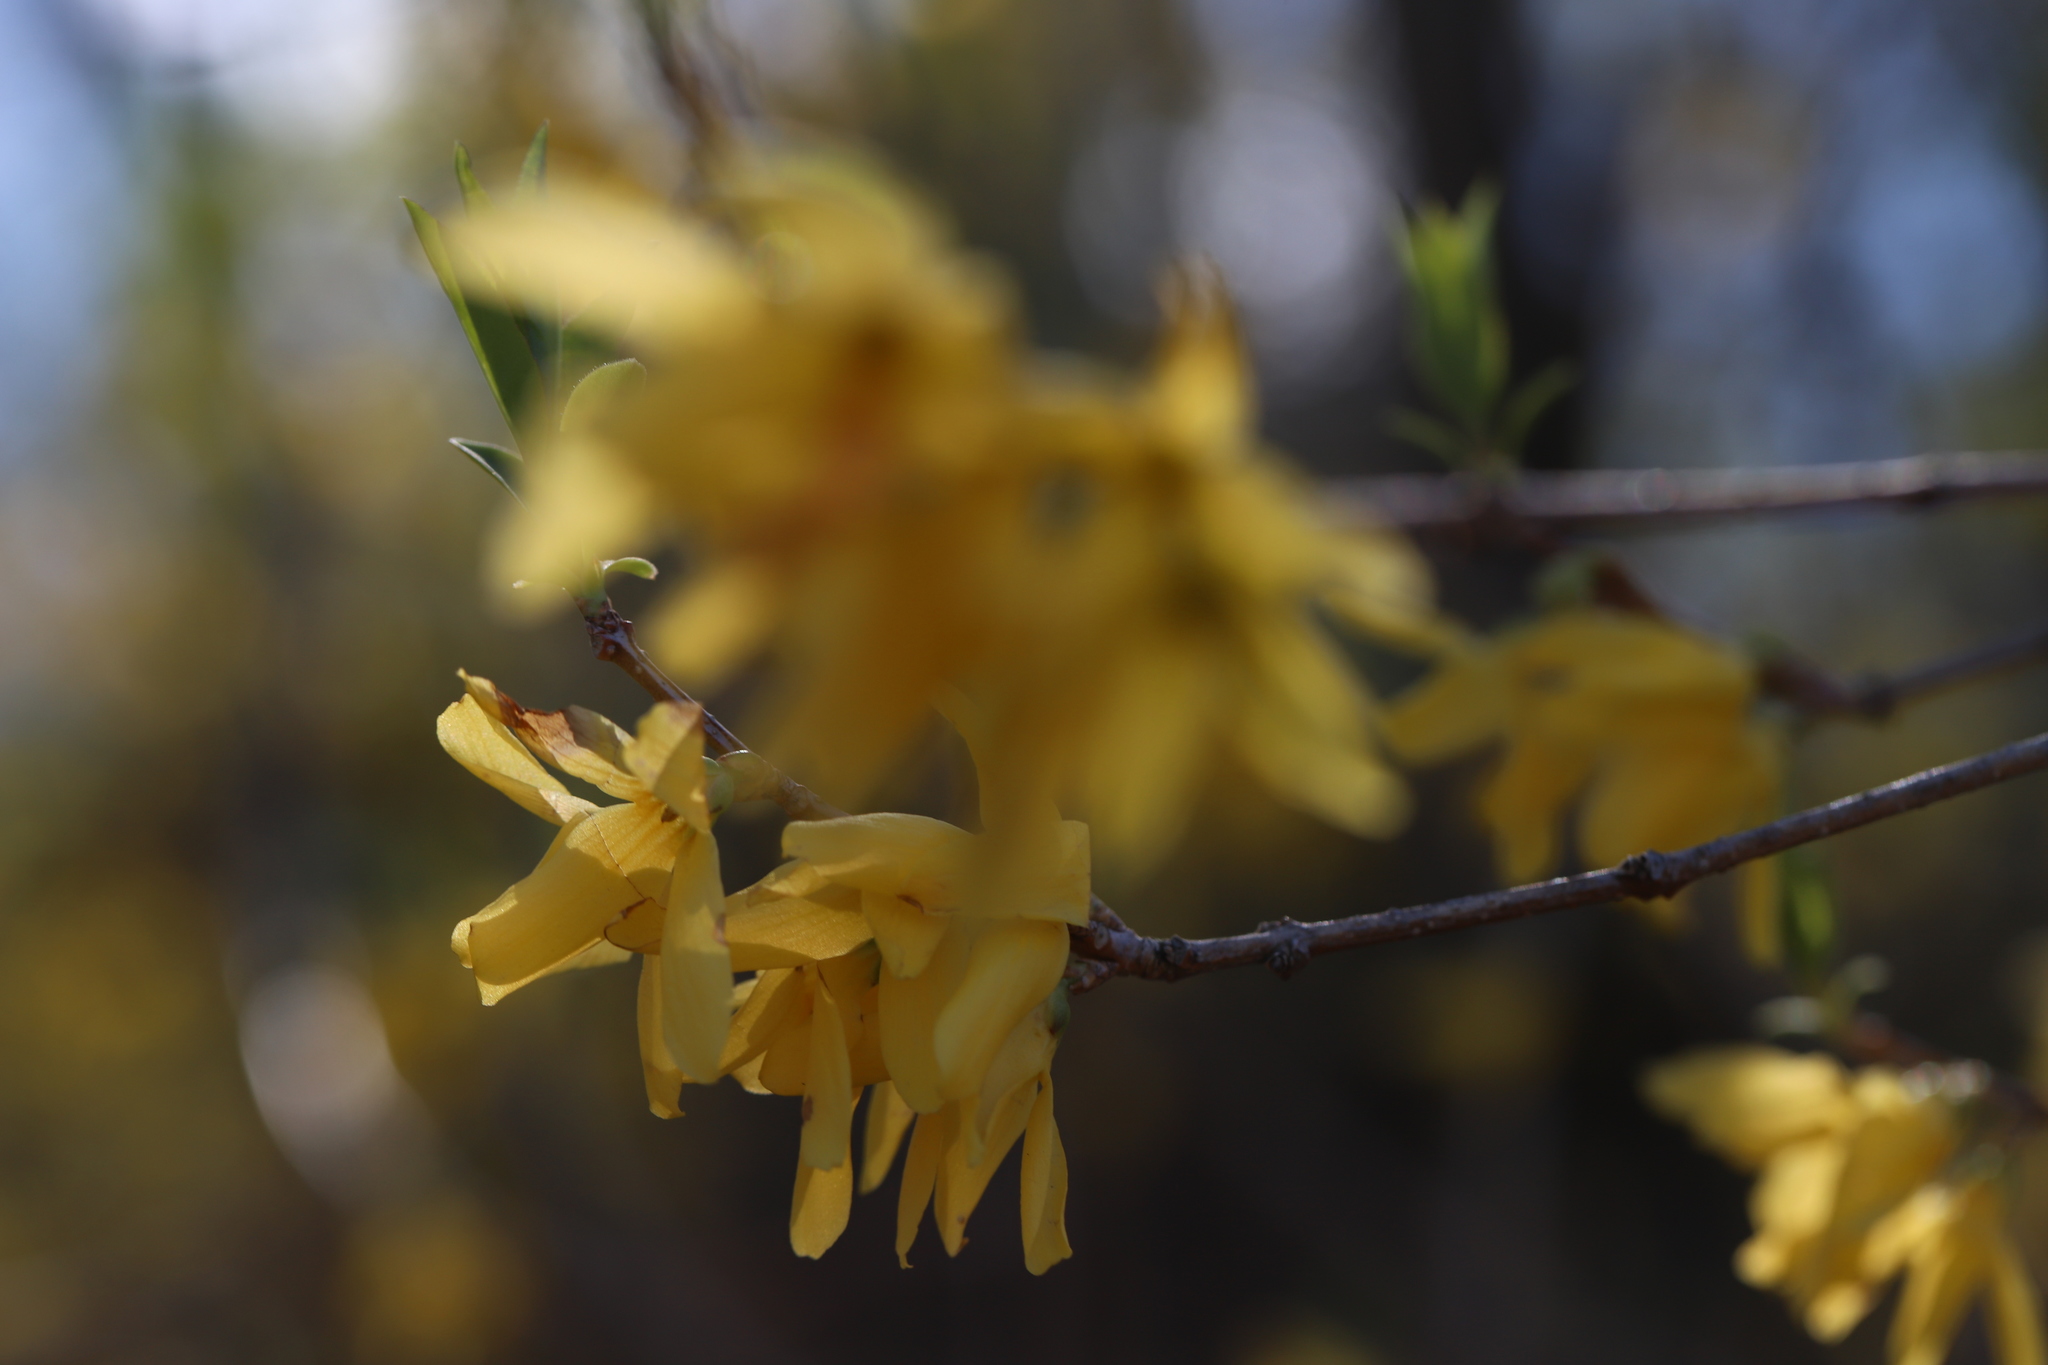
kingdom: Plantae
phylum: Tracheophyta
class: Magnoliopsida
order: Lamiales
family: Oleaceae
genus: Forsythia
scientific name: Forsythia intermedia
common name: Forsythia
